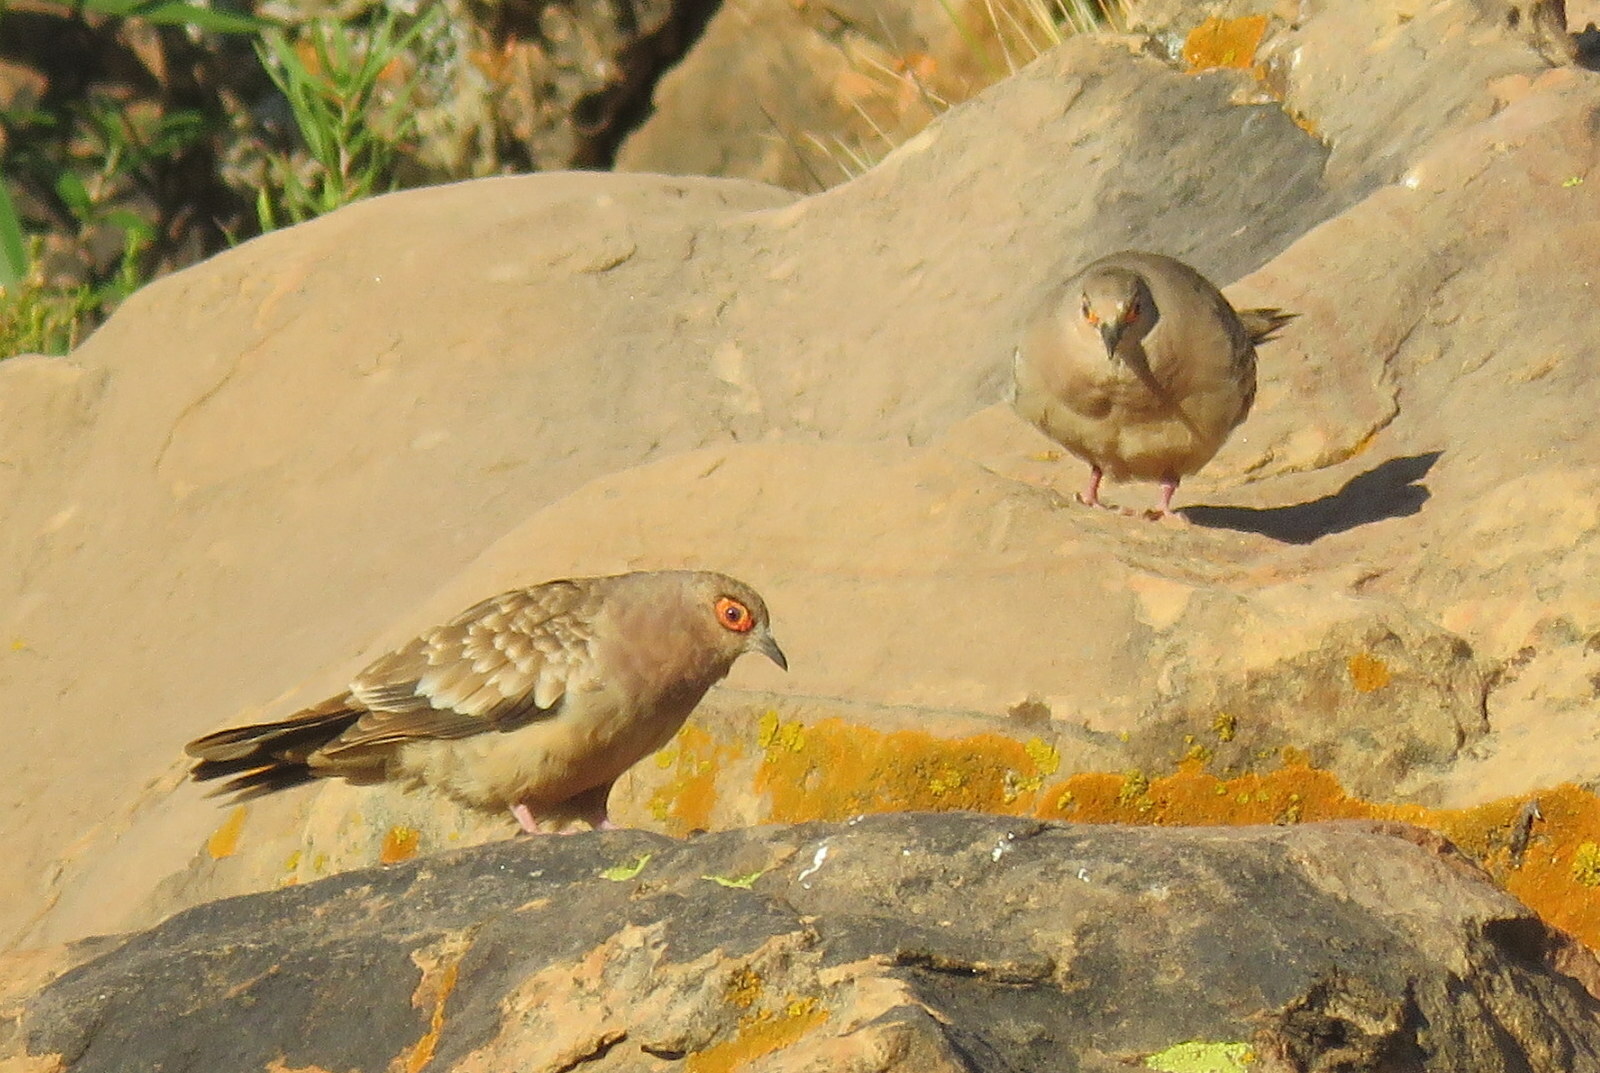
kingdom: Animalia
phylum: Chordata
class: Aves
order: Columbiformes
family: Columbidae
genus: Metriopelia
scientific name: Metriopelia ceciliae
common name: Bare-faced ground dove
